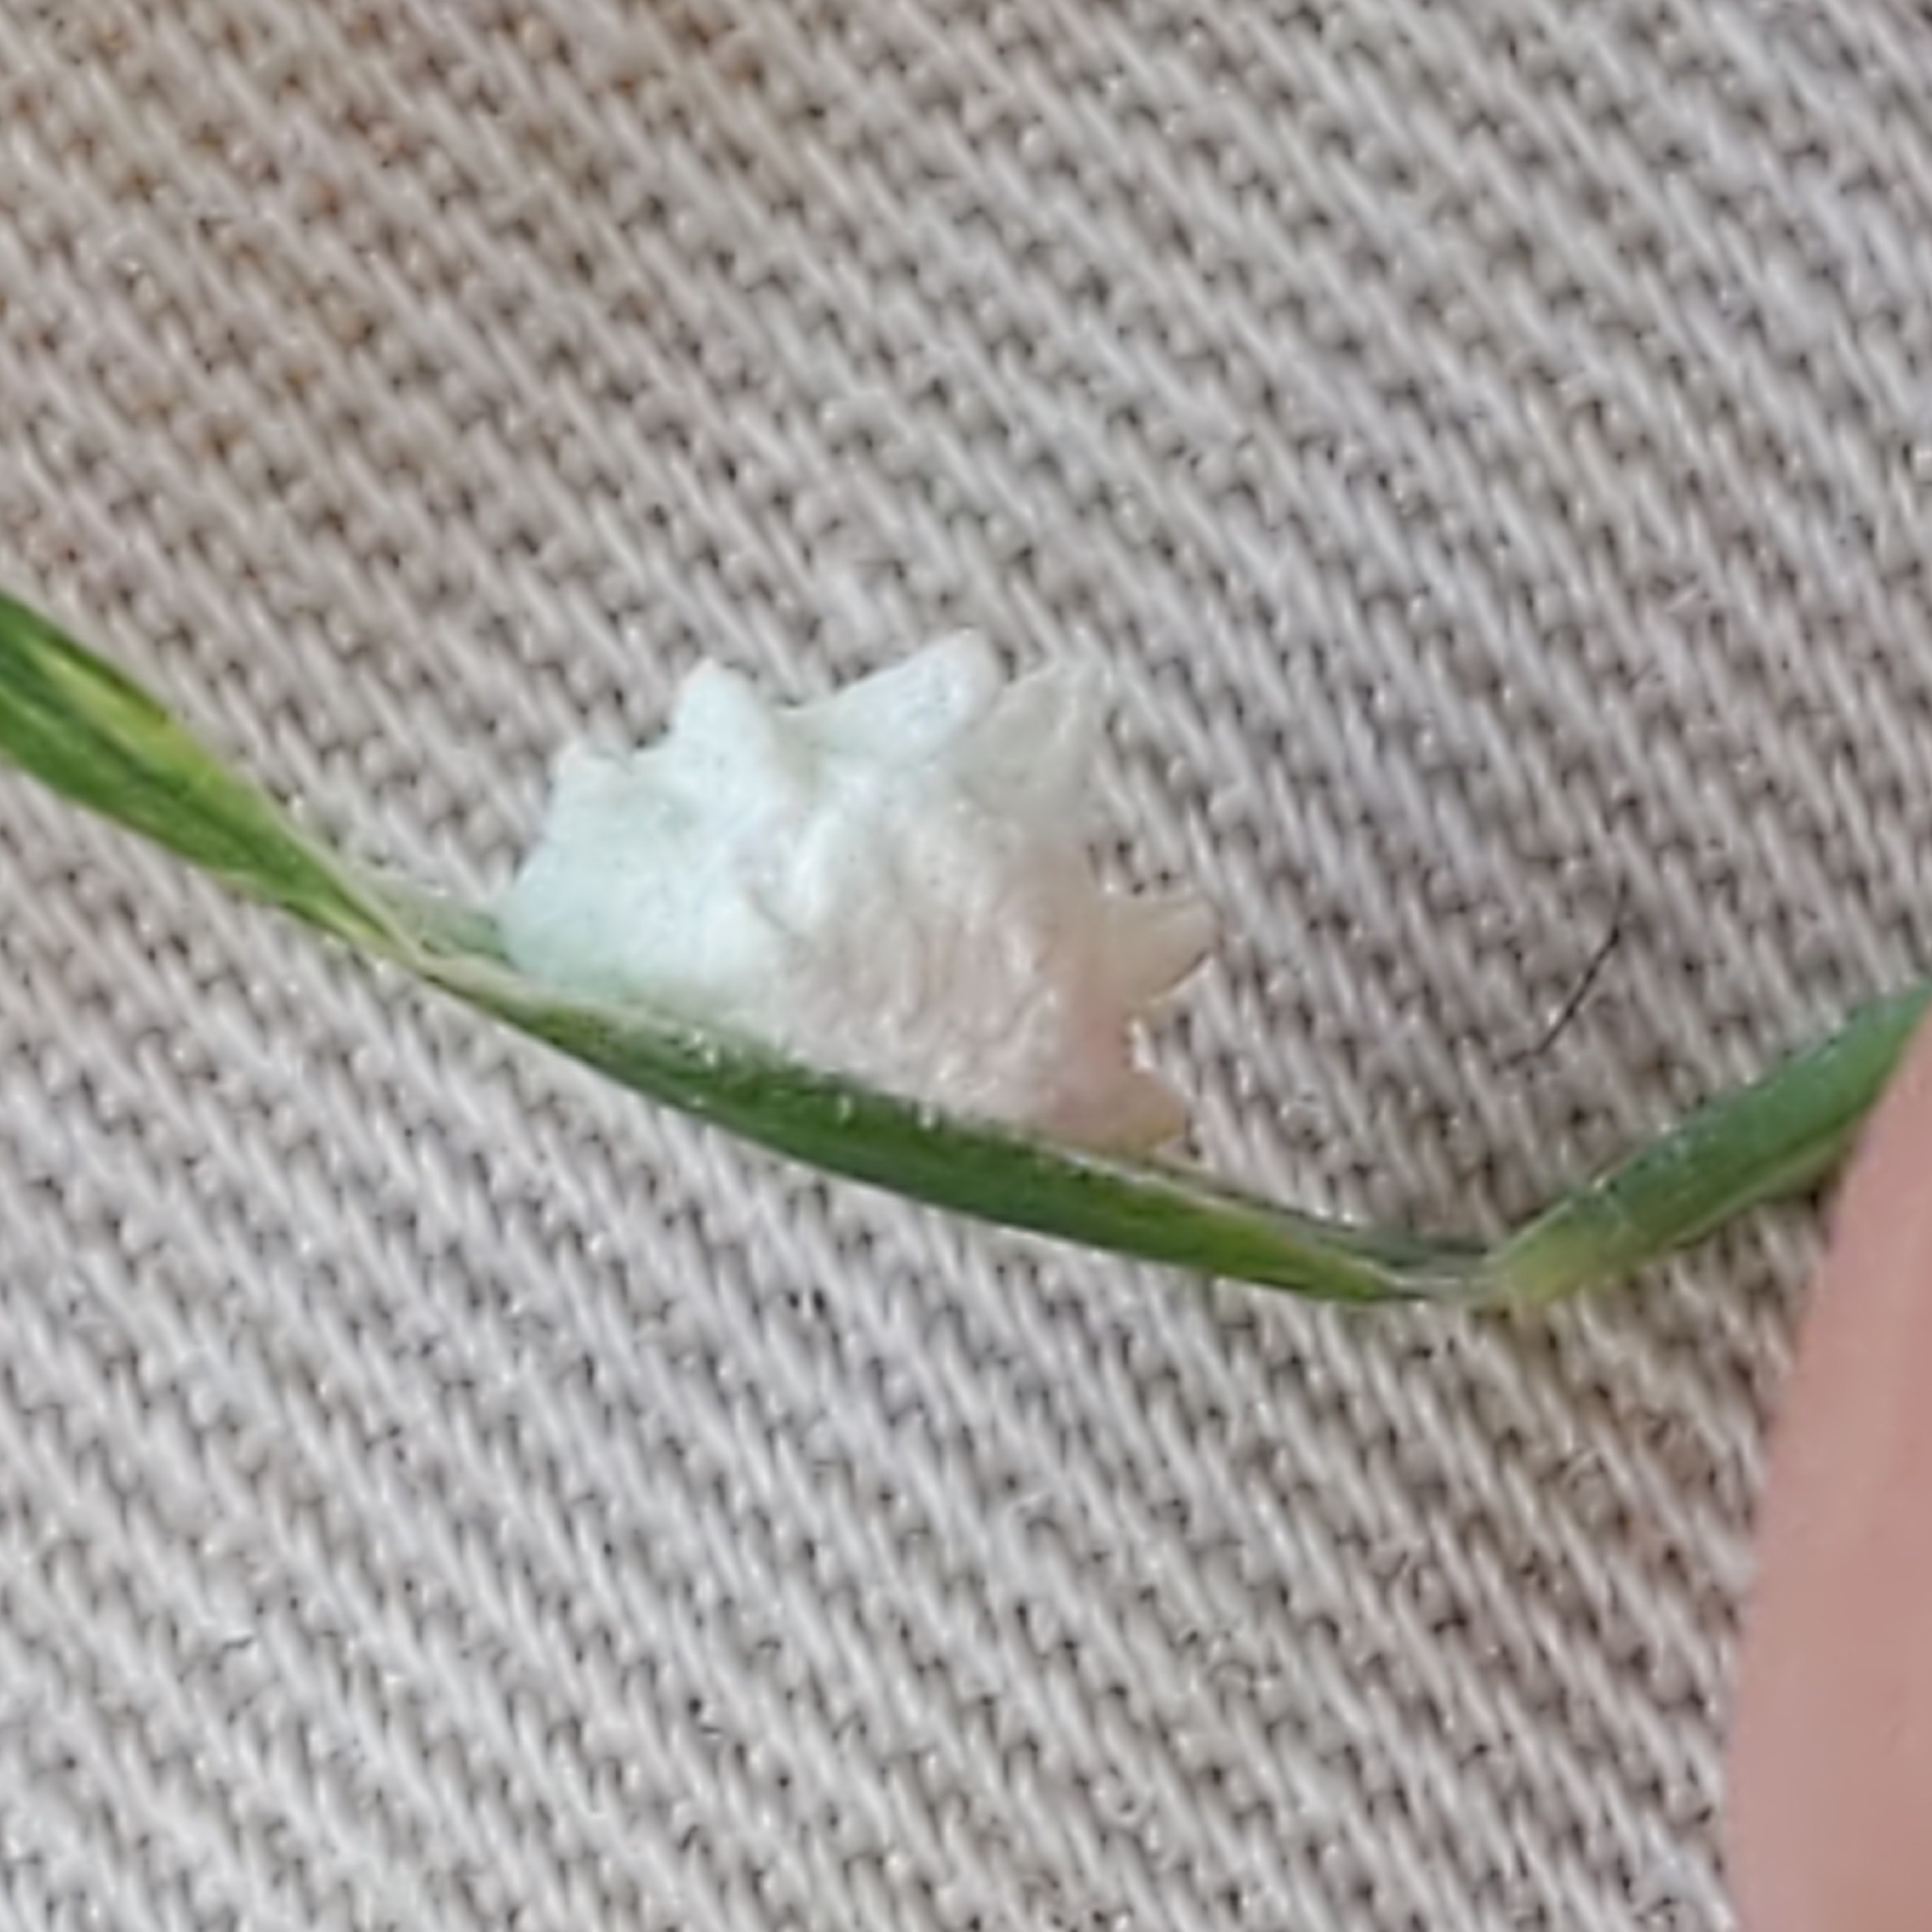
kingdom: Animalia
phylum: Arthropoda
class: Insecta
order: Lepidoptera
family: Epipyropidae
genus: Fulgoraecia
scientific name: Fulgoraecia exigua
